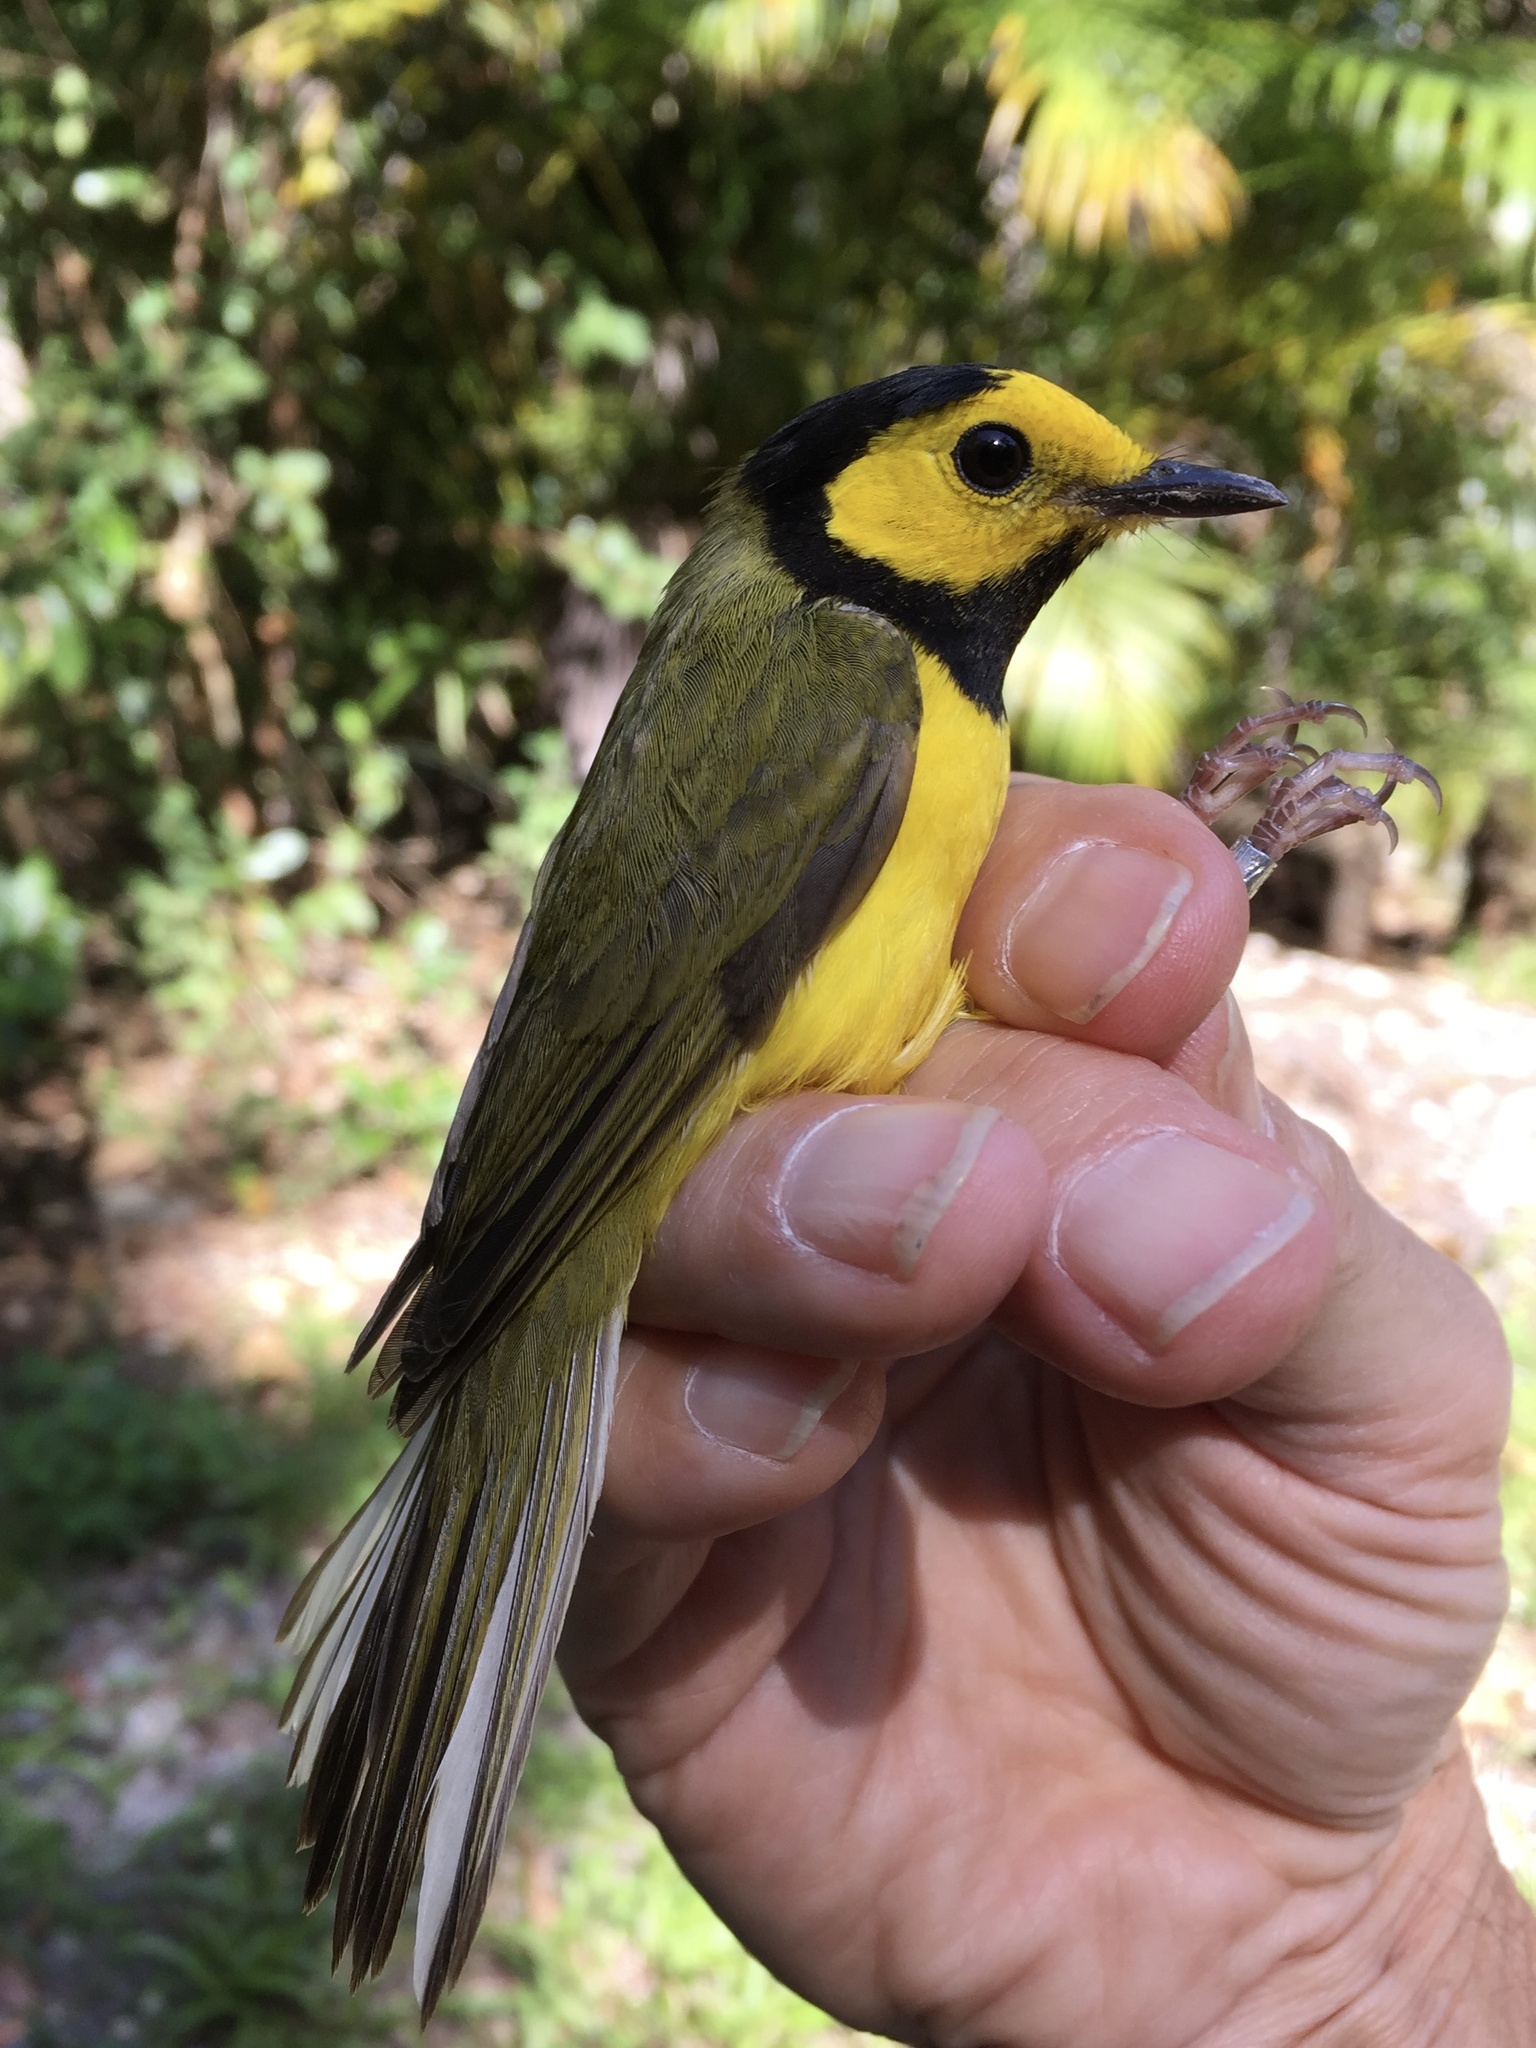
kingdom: Animalia
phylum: Chordata
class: Aves
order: Passeriformes
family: Parulidae
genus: Setophaga
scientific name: Setophaga citrina
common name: Hooded warbler
